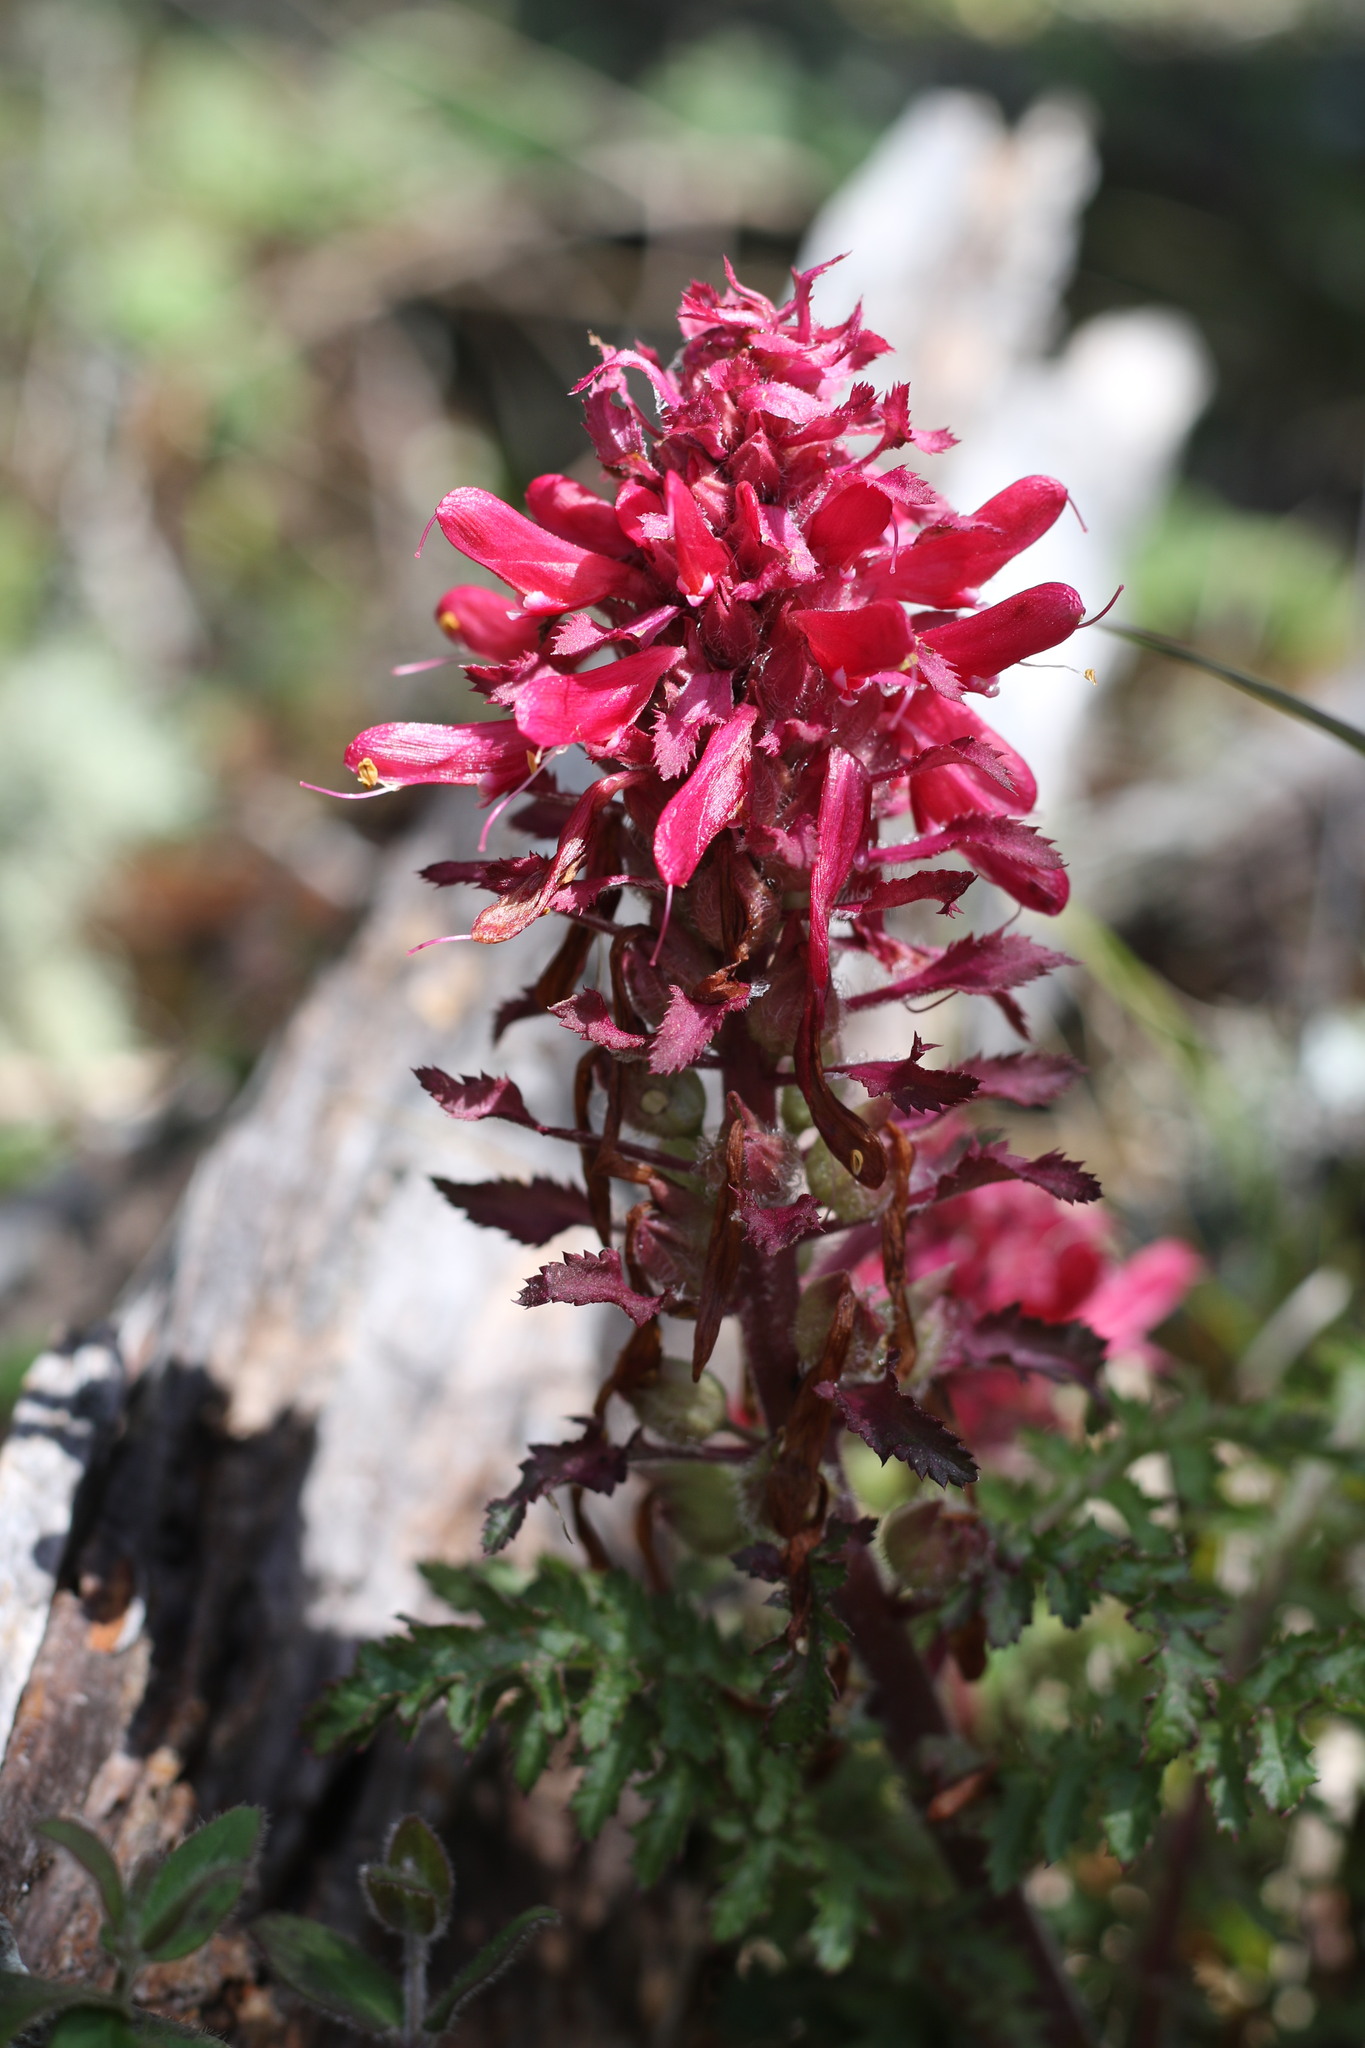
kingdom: Plantae
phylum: Tracheophyta
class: Magnoliopsida
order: Lamiales
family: Orobanchaceae
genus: Pedicularis
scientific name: Pedicularis densiflora
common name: Indian warrior
